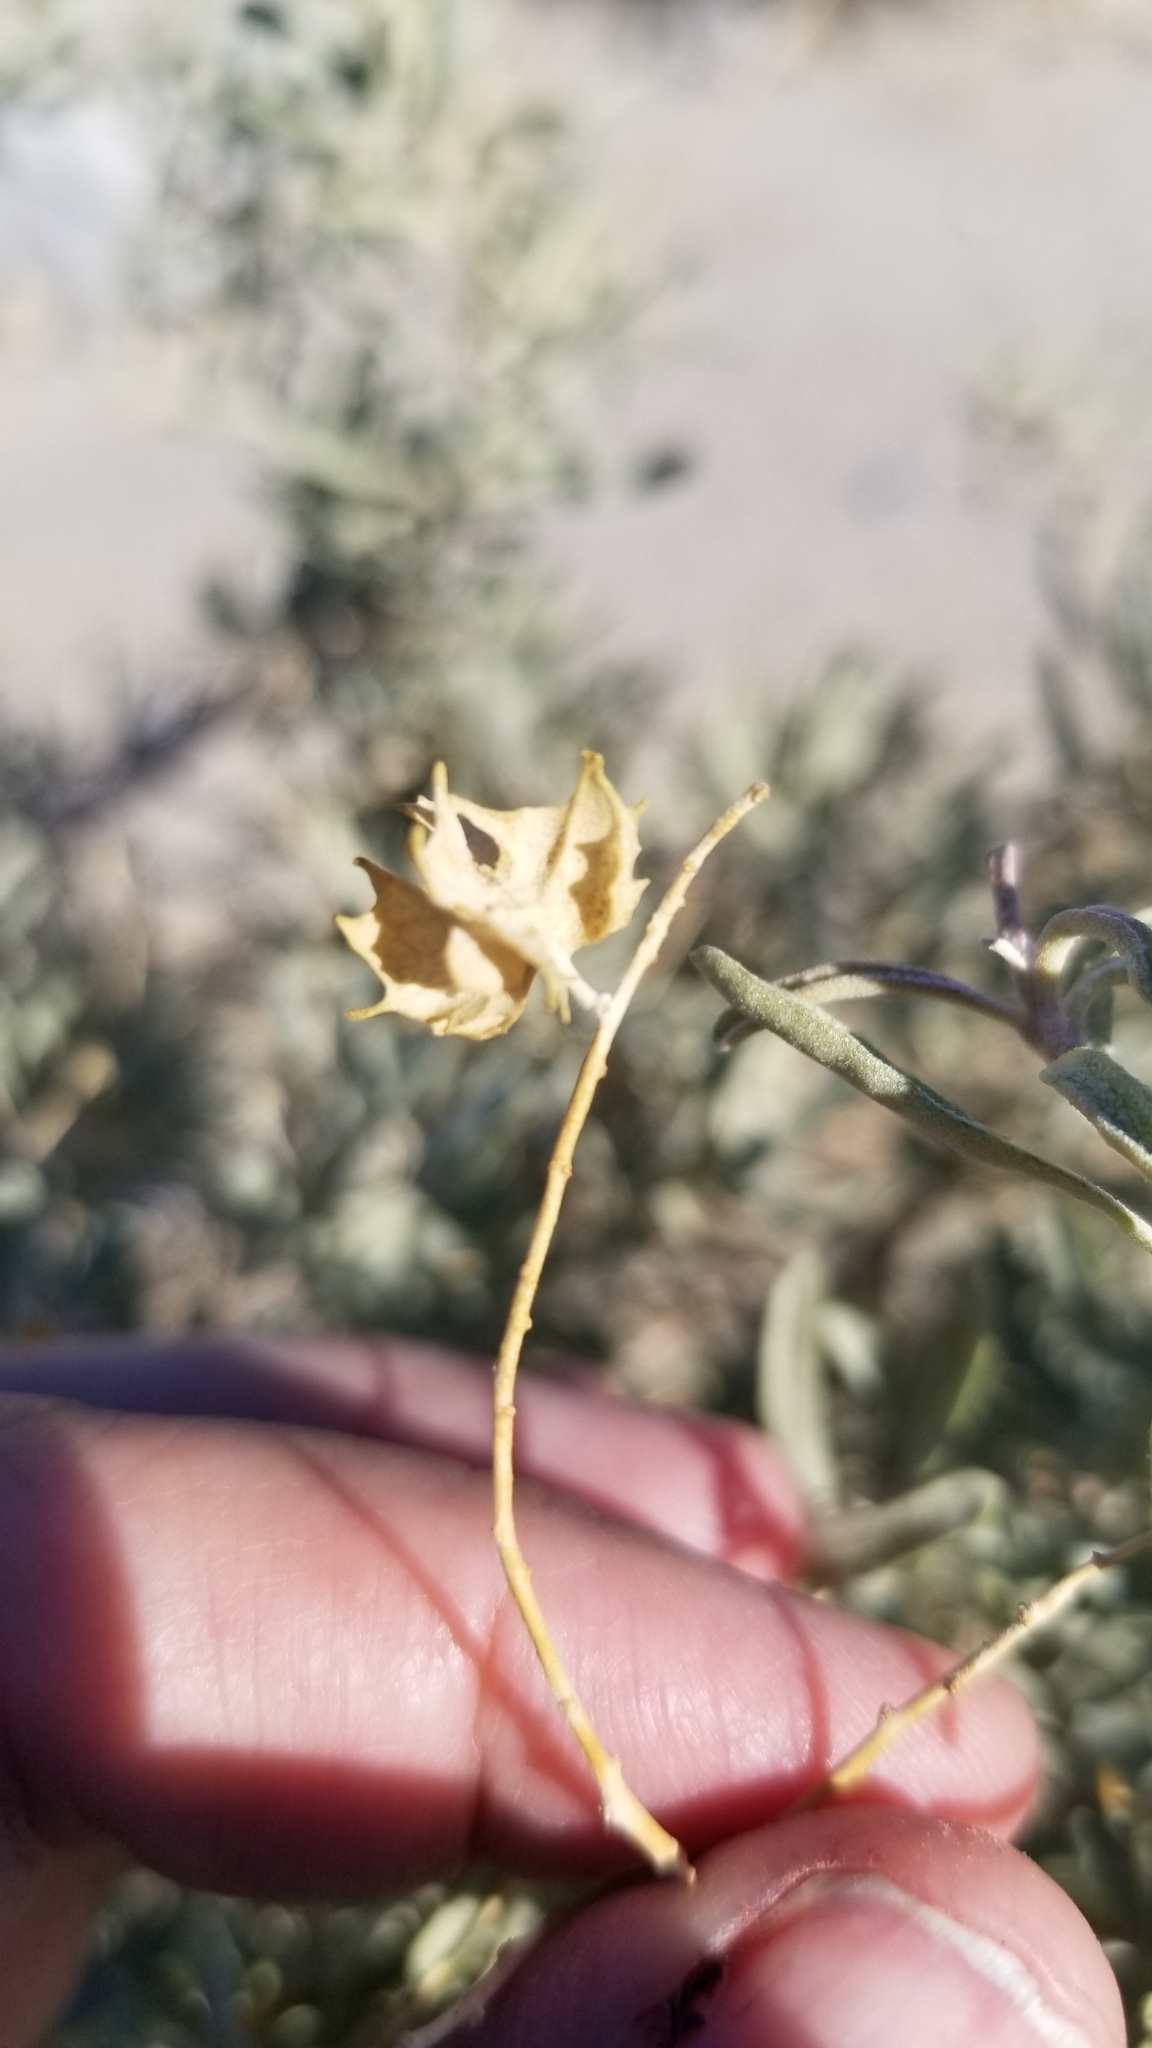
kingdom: Plantae
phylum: Tracheophyta
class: Magnoliopsida
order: Caryophyllales
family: Amaranthaceae
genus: Atriplex
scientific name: Atriplex canescens
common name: Four-wing saltbush
